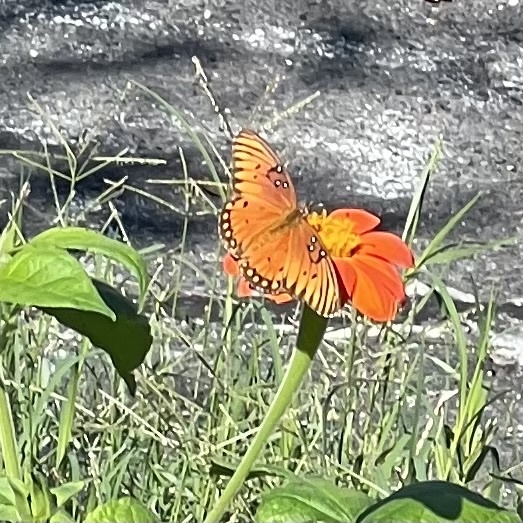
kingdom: Animalia
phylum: Arthropoda
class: Insecta
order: Lepidoptera
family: Nymphalidae
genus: Dione
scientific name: Dione vanillae
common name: Gulf fritillary
